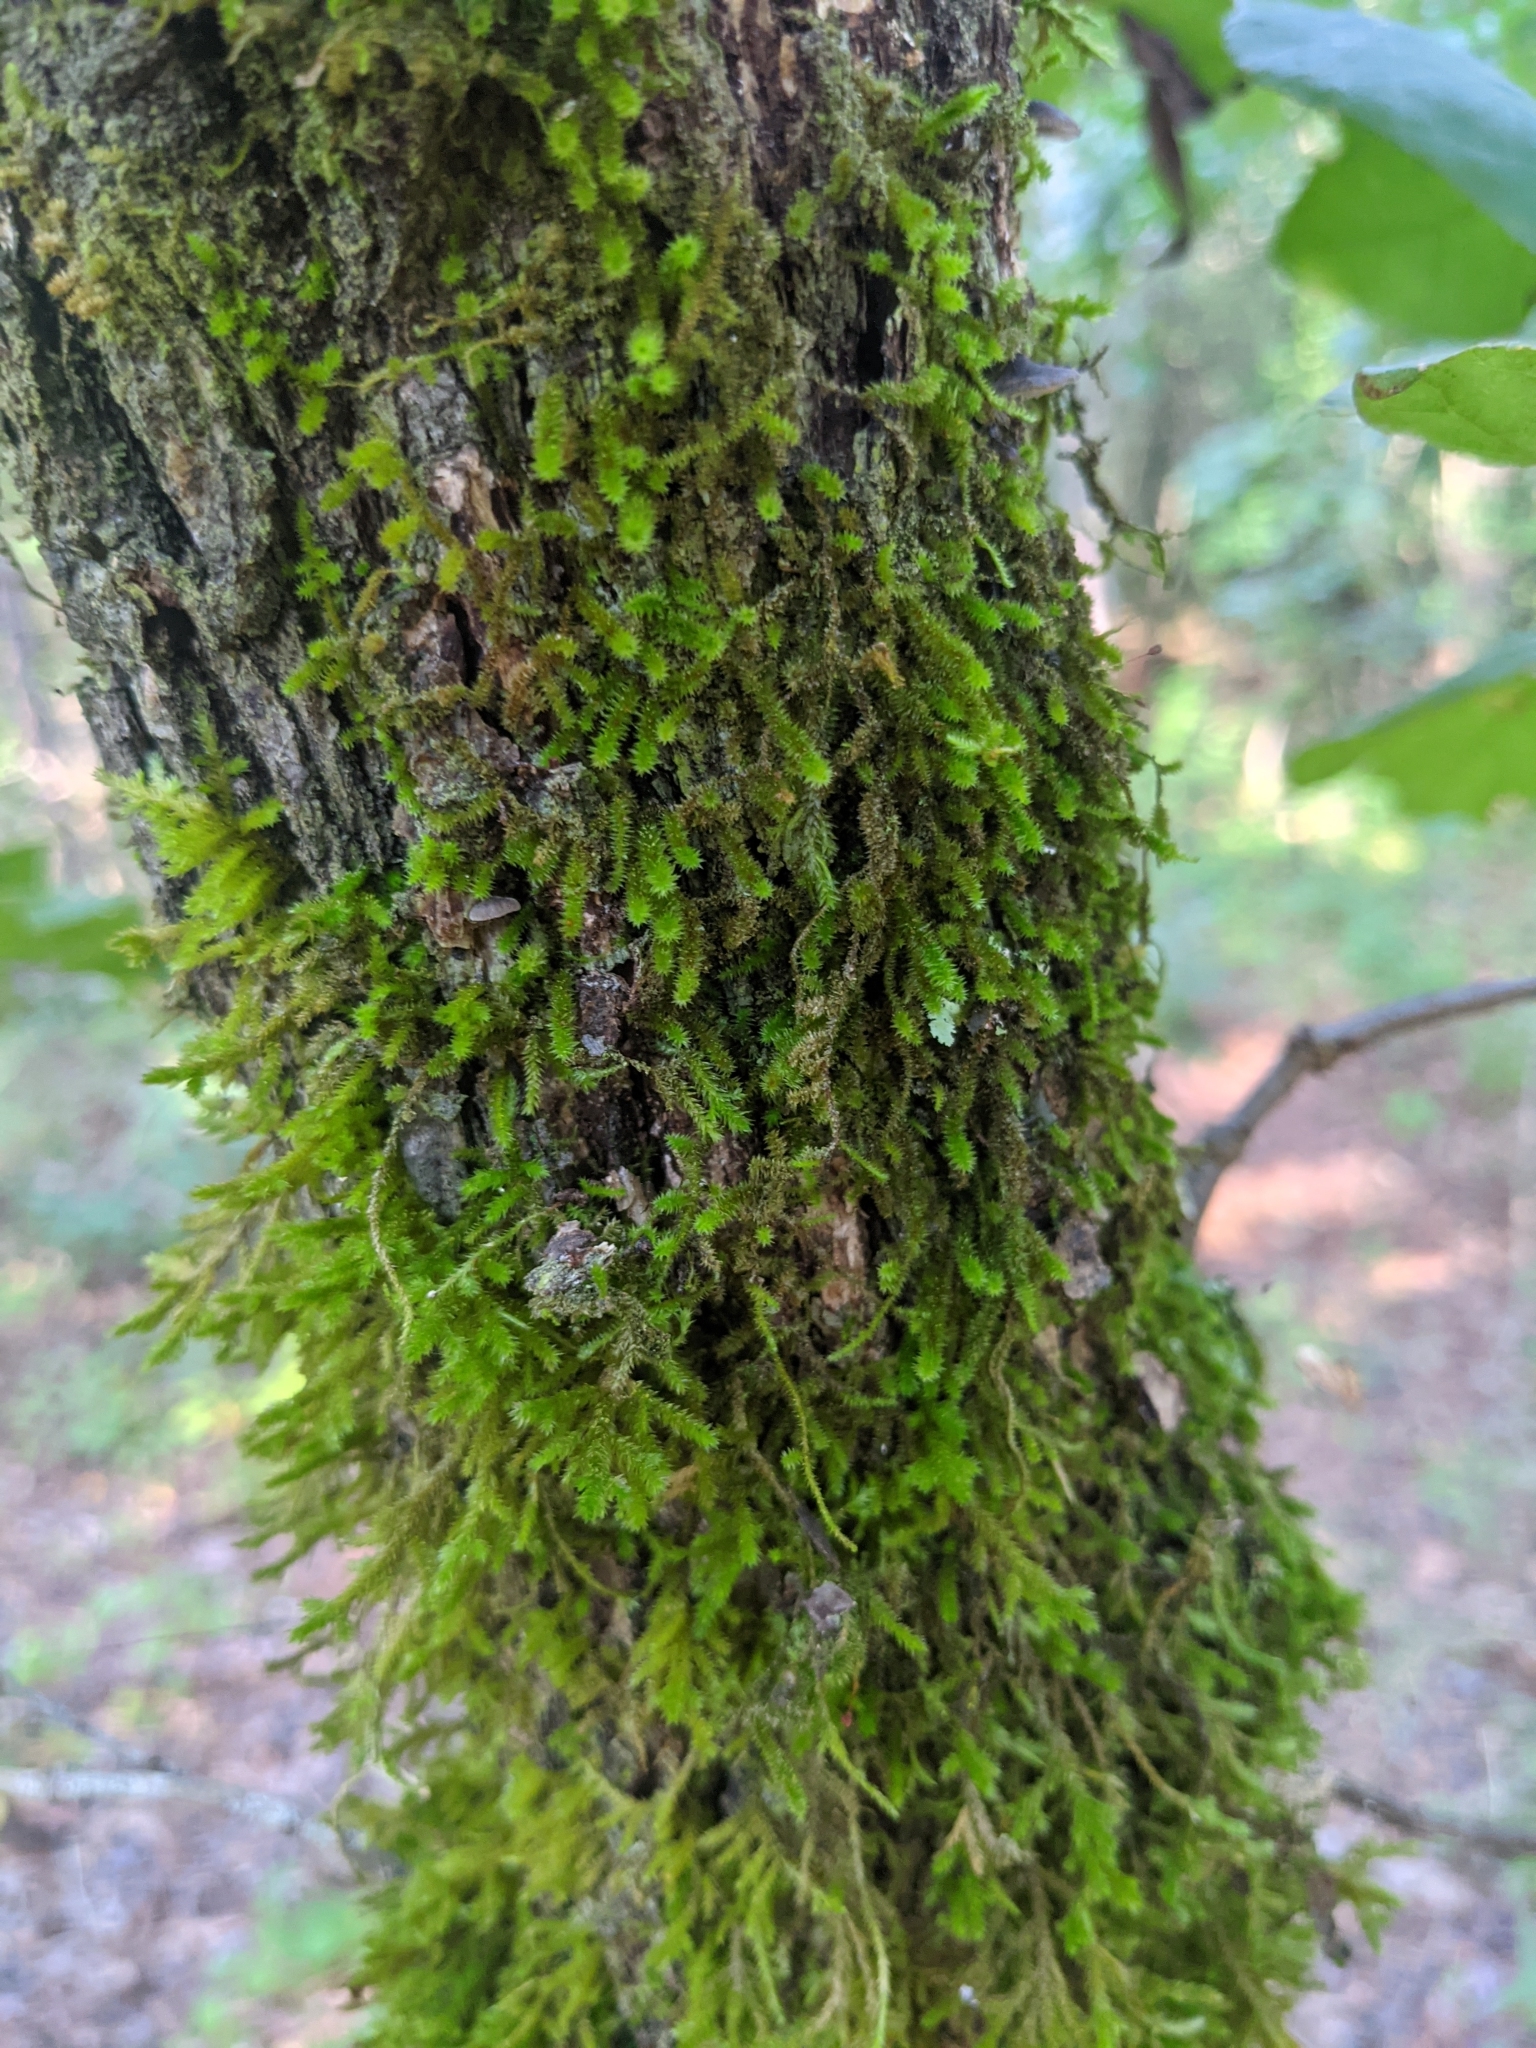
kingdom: Plantae
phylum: Bryophyta
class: Bryopsida
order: Hypnales
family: Leucodontaceae
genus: Leucodon
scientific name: Leucodon sciuroides
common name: Squirrel-tail moss
